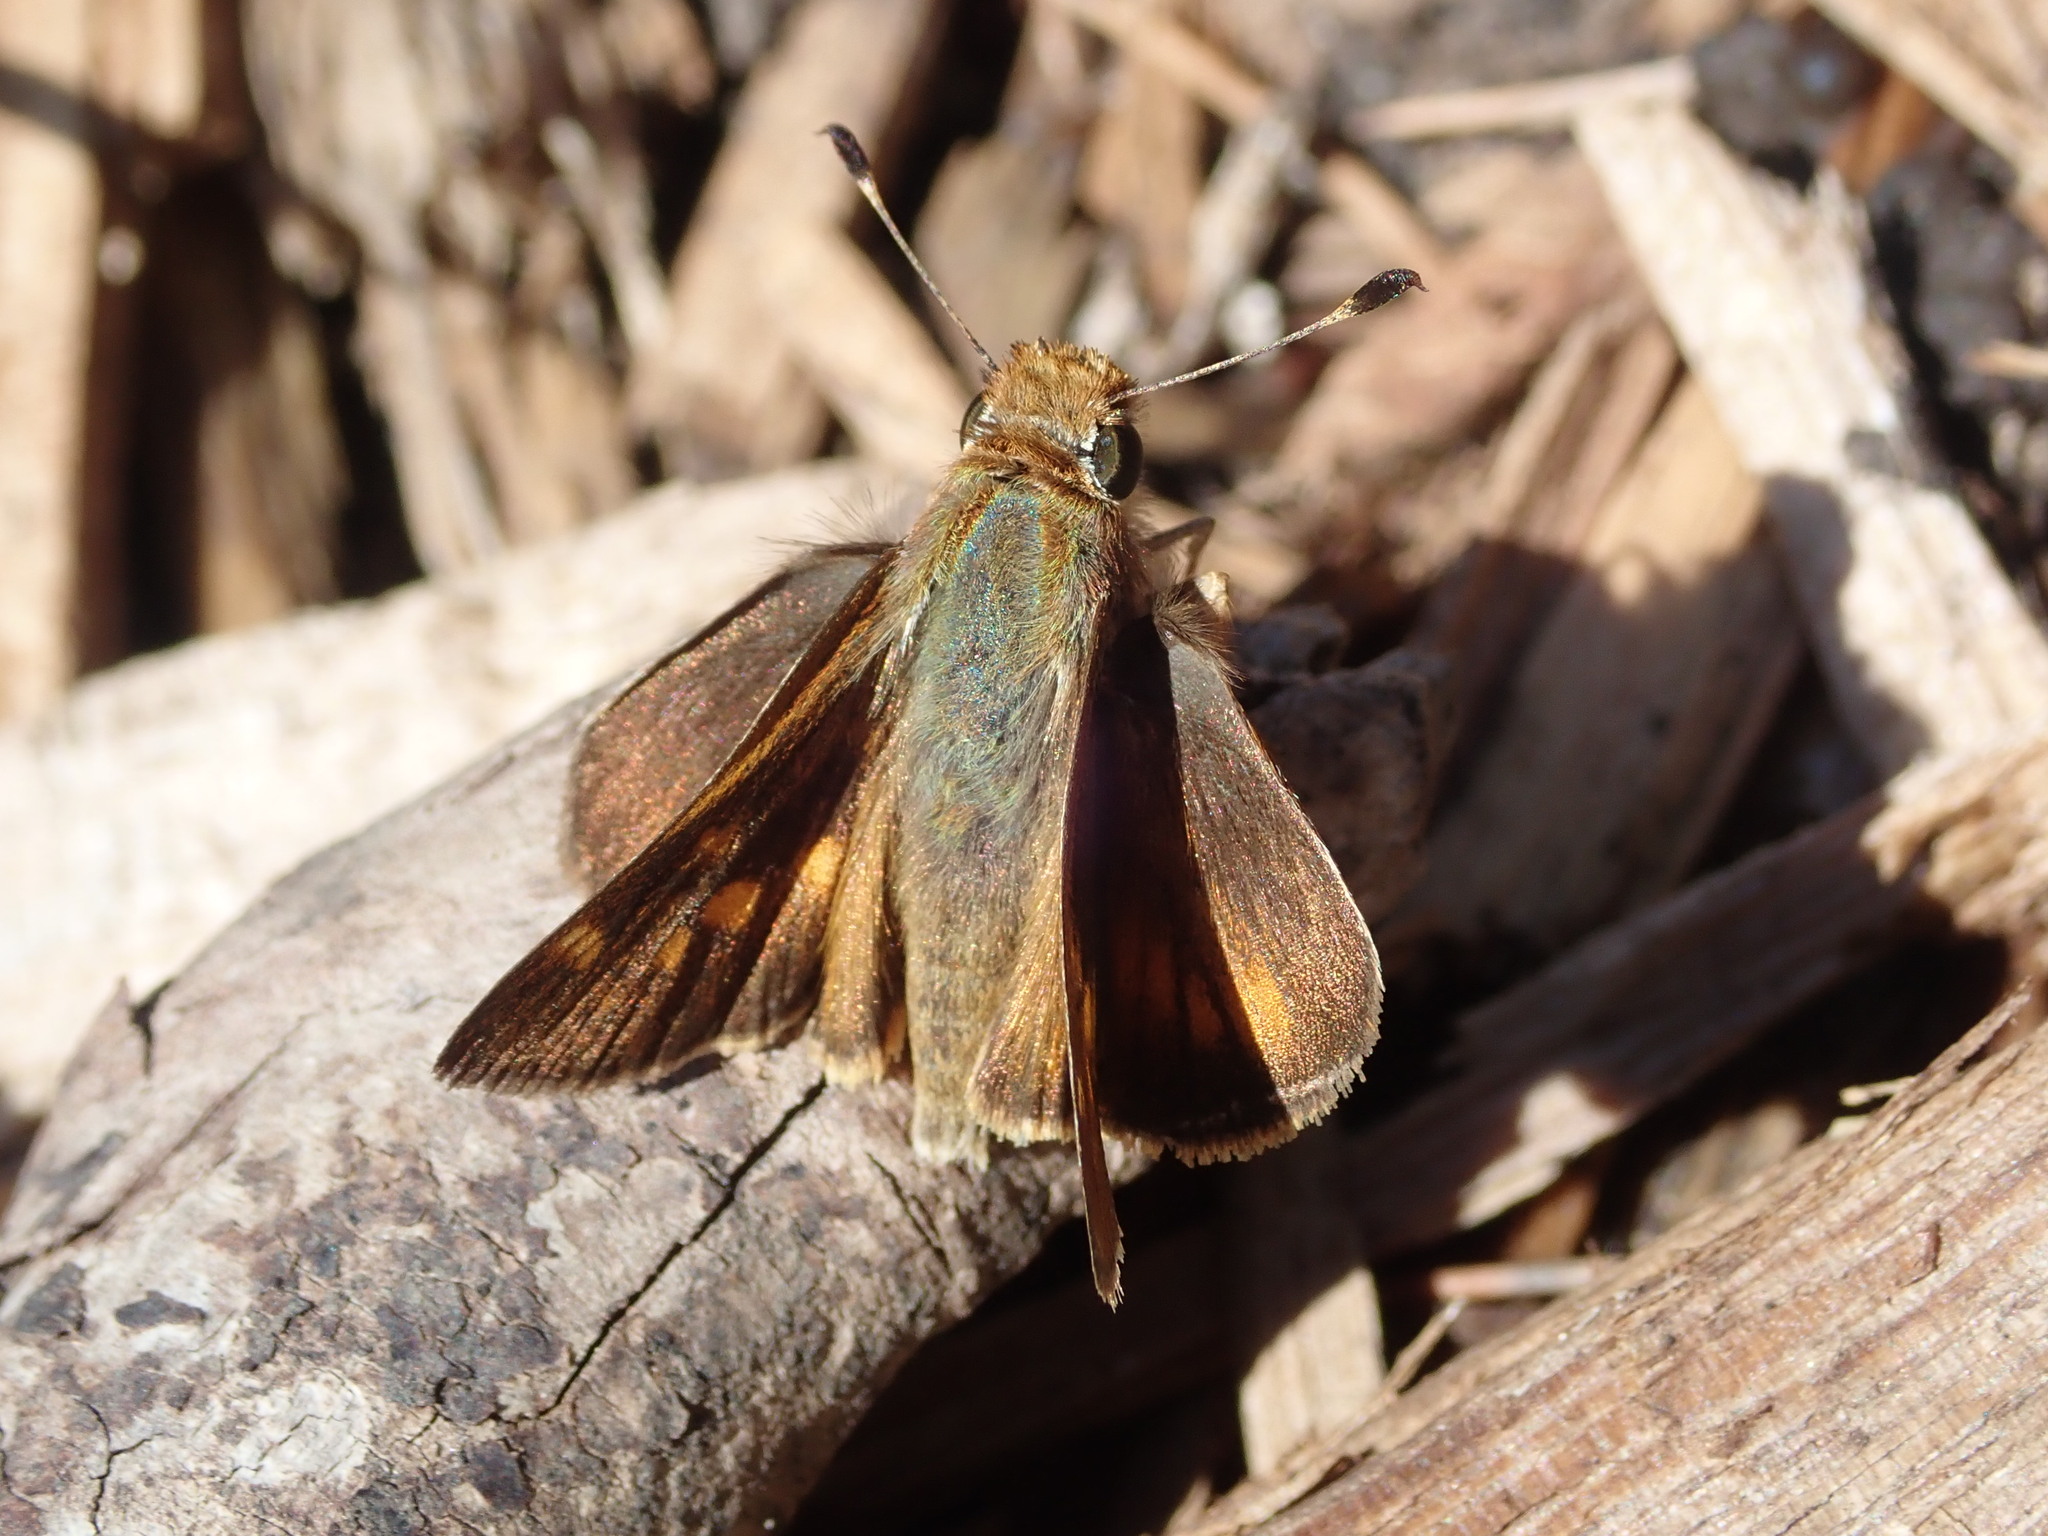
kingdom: Animalia
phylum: Arthropoda
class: Insecta
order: Lepidoptera
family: Hesperiidae
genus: Lon
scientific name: Lon melane
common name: Umber skipper
